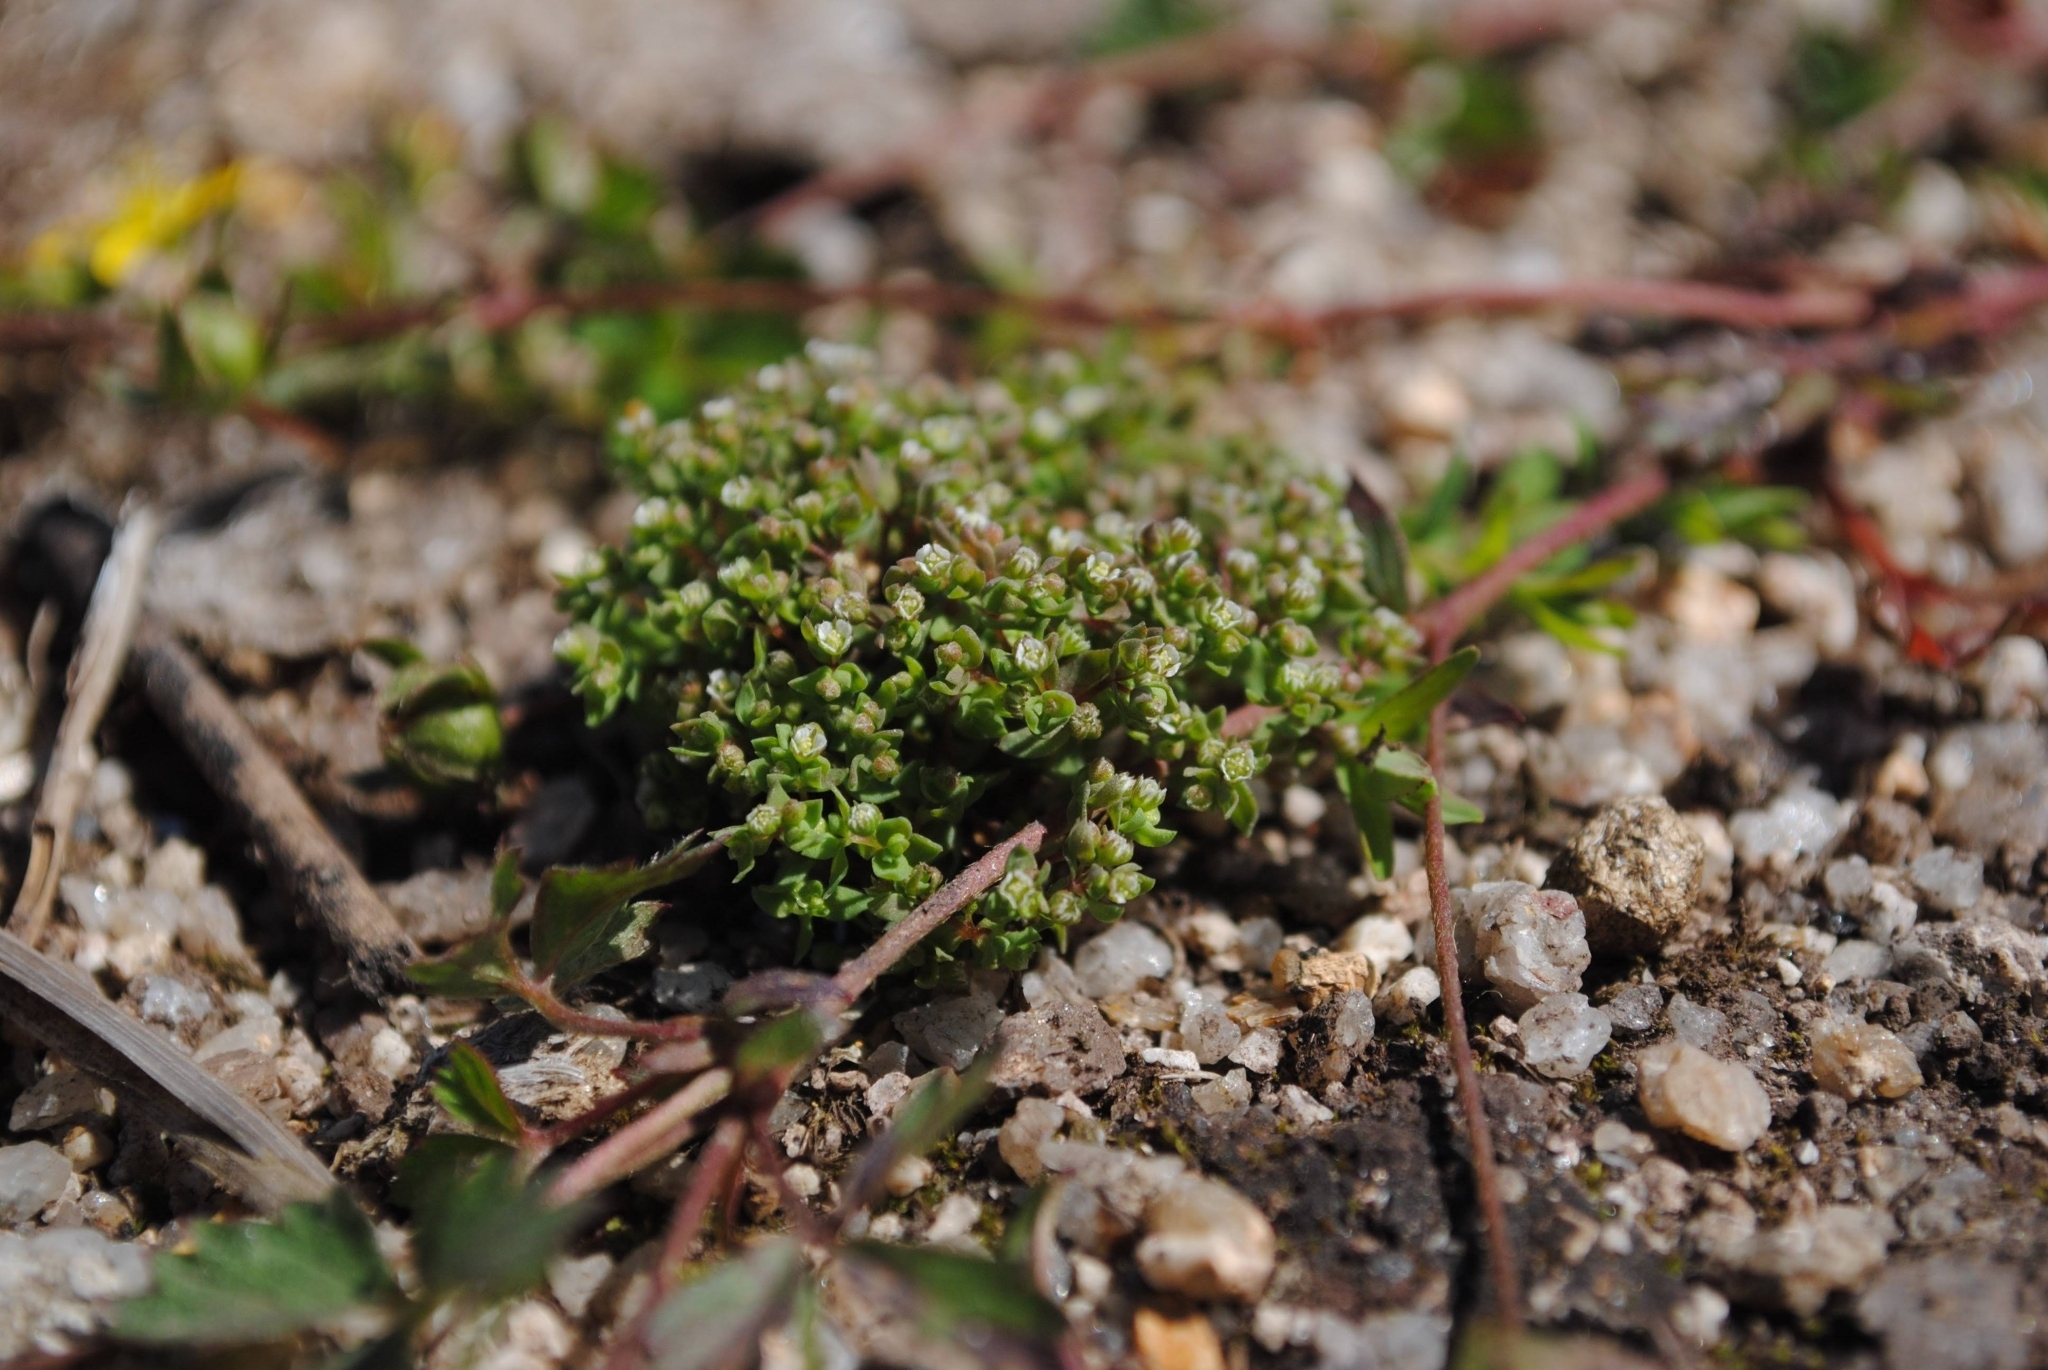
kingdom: Plantae
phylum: Tracheophyta
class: Magnoliopsida
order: Malpighiales
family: Linaceae
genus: Radiola
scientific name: Radiola linoides
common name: Allseed
